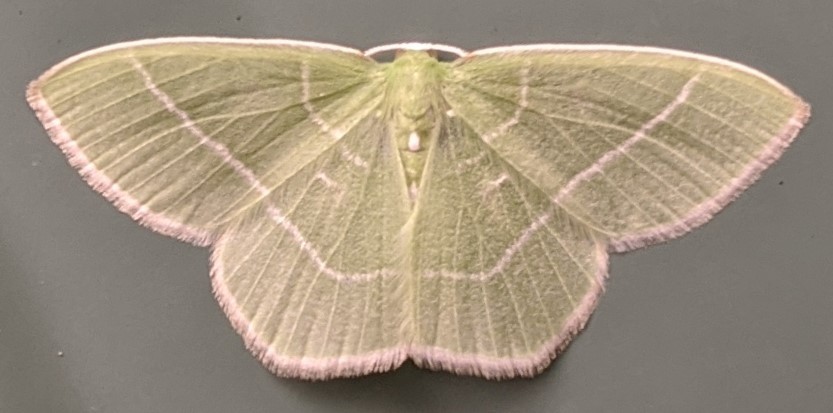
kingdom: Animalia
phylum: Arthropoda
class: Insecta
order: Lepidoptera
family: Geometridae
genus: Nemoria
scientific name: Nemoria mimosaria
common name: White-fringed emerald
